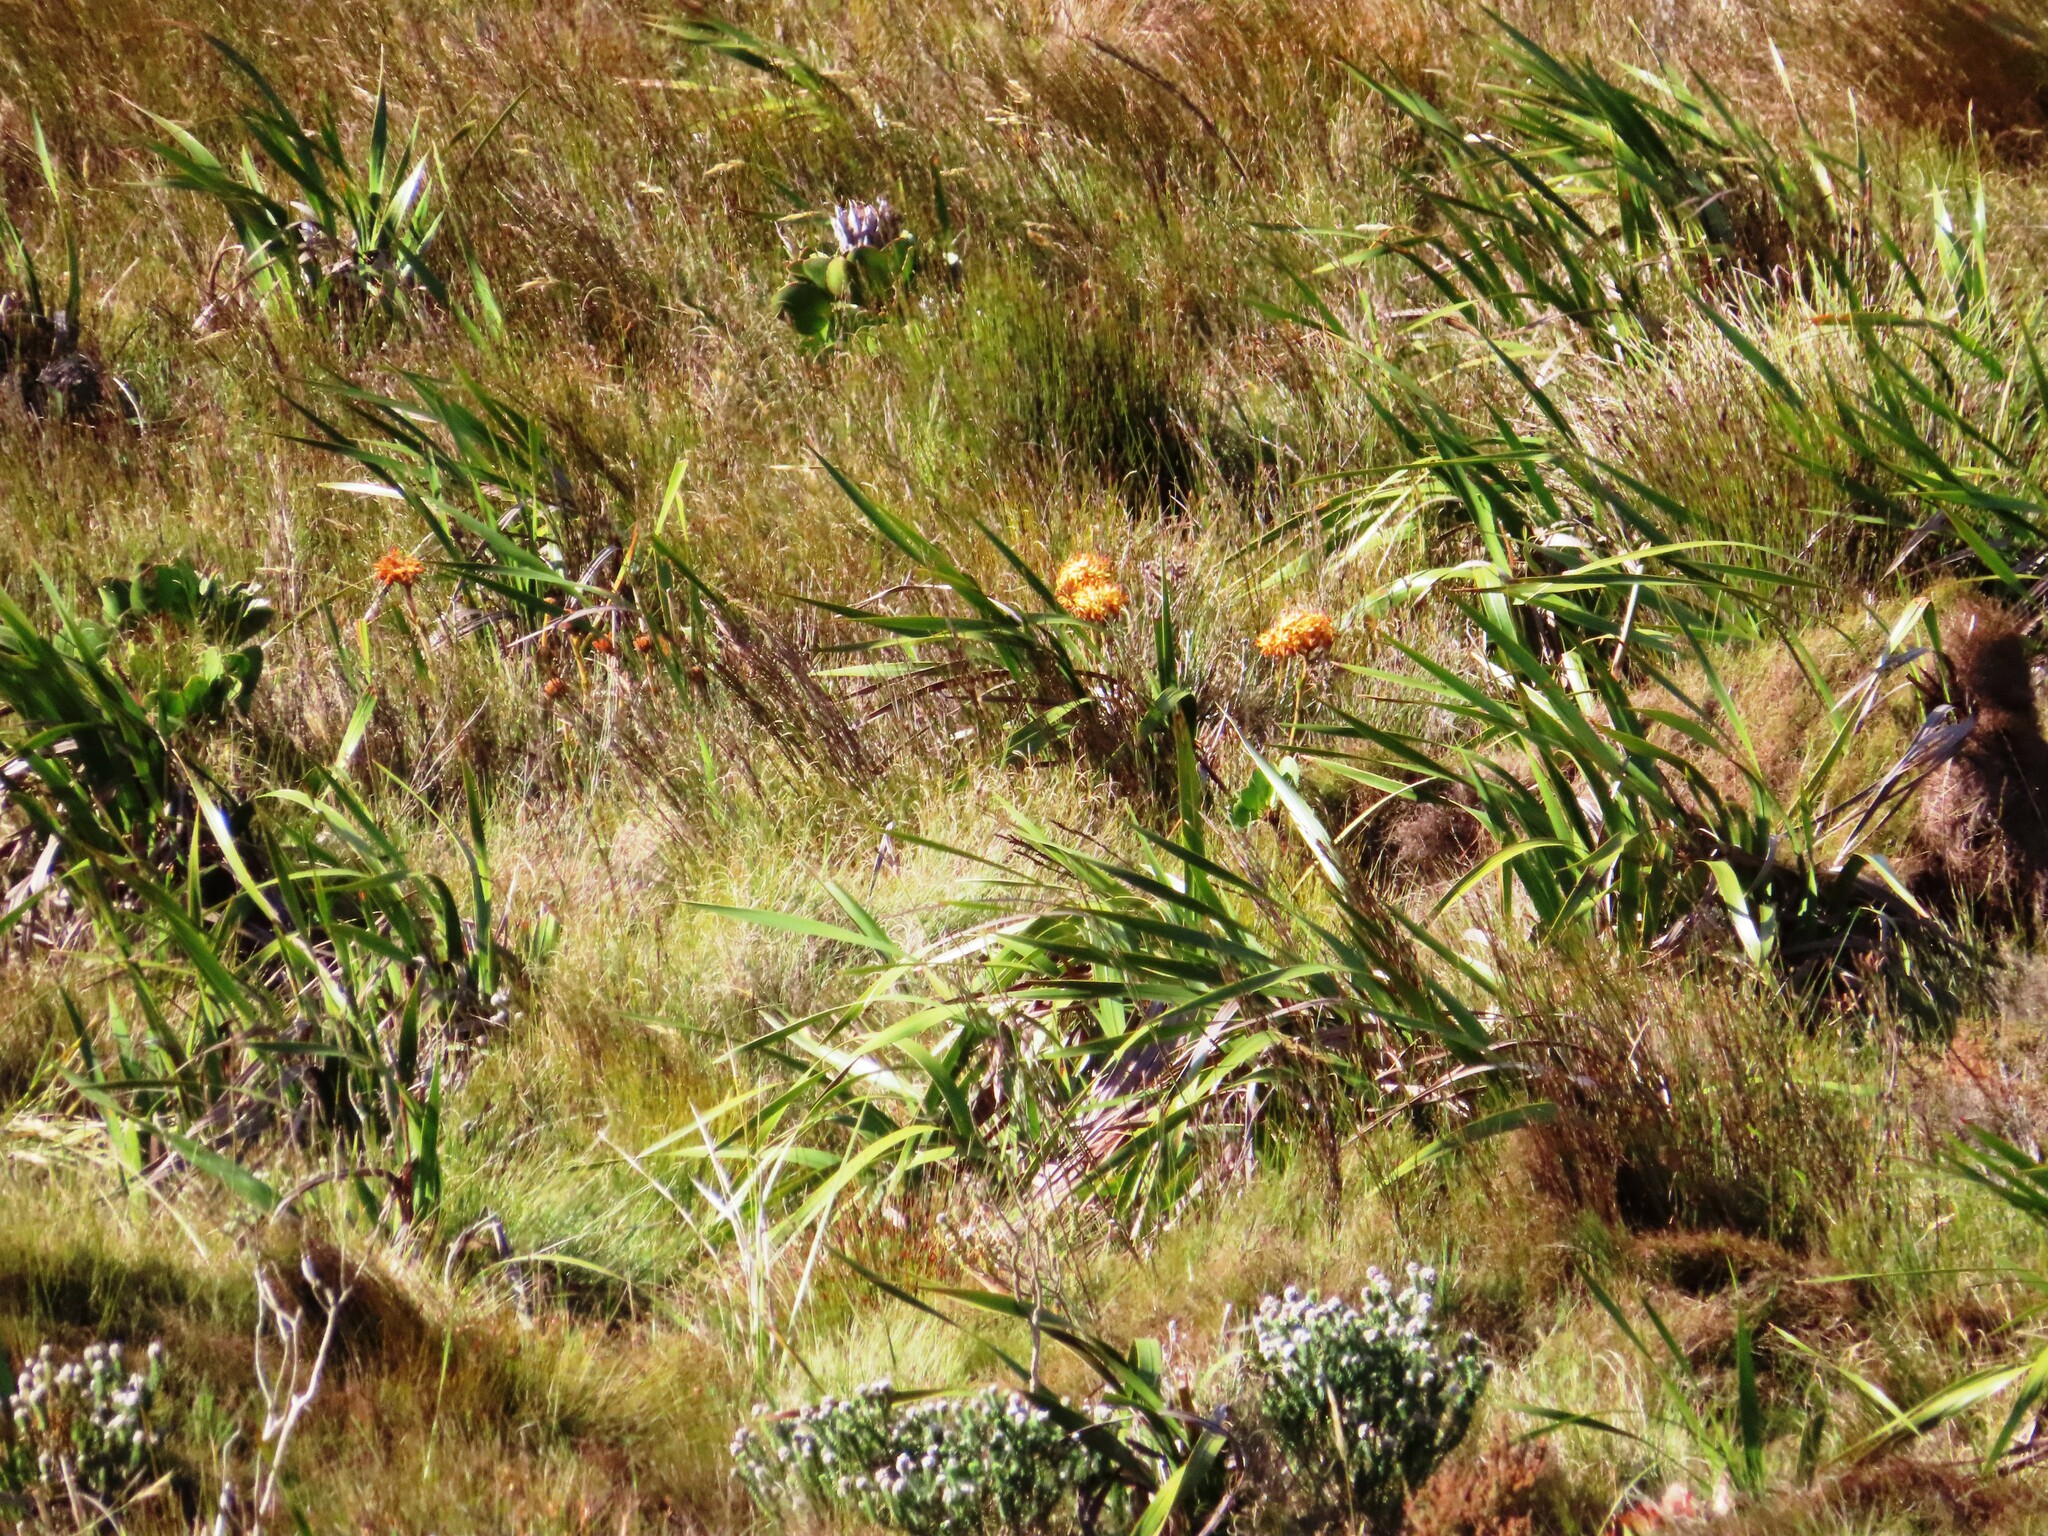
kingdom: Plantae
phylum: Tracheophyta
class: Magnoliopsida
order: Proteales
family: Proteaceae
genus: Protea
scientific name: Protea cynaroides
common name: King protea
